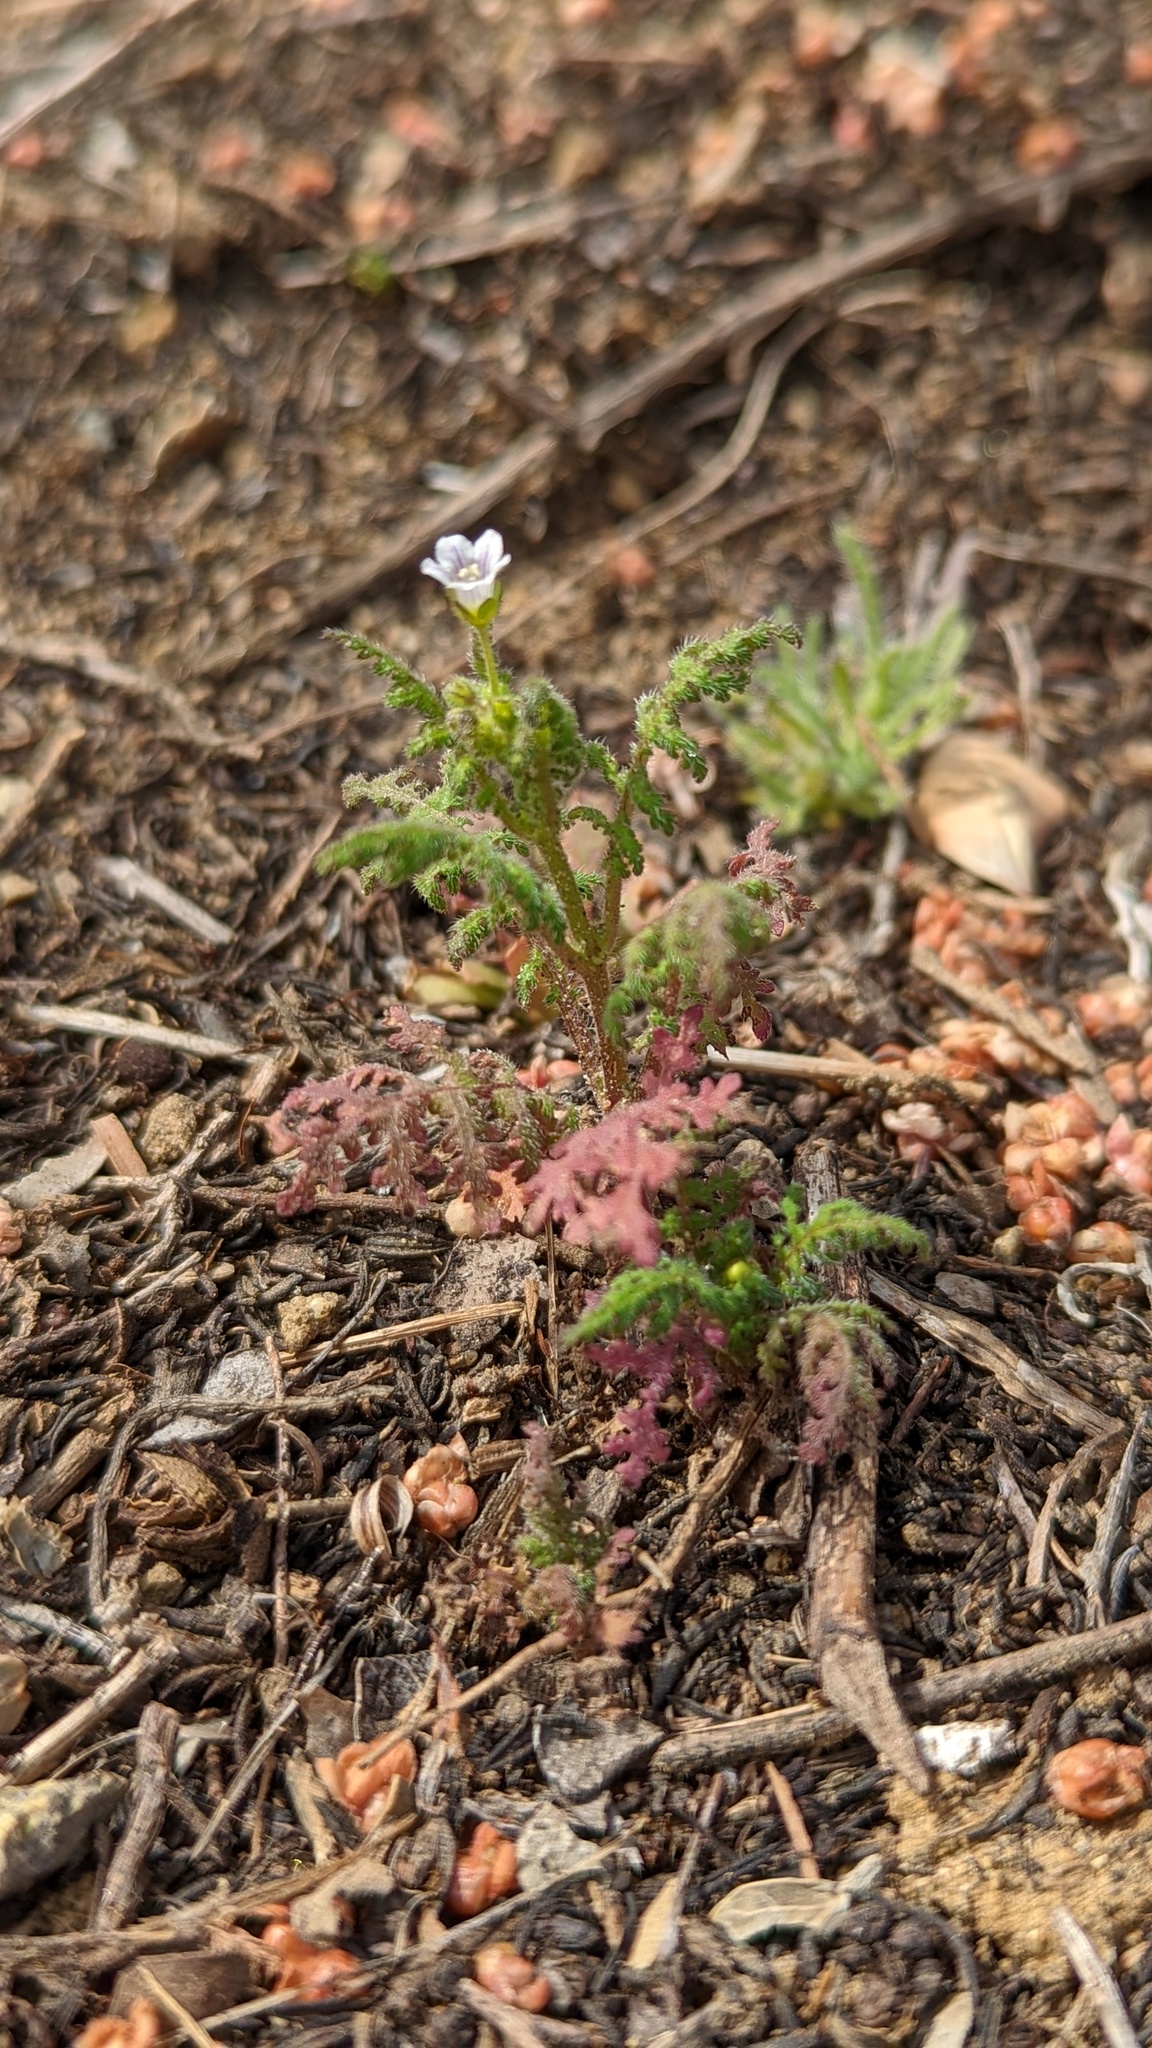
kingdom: Plantae
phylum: Tracheophyta
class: Magnoliopsida
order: Boraginales
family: Hydrophyllaceae
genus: Eucrypta
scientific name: Eucrypta chrysanthemifolia
